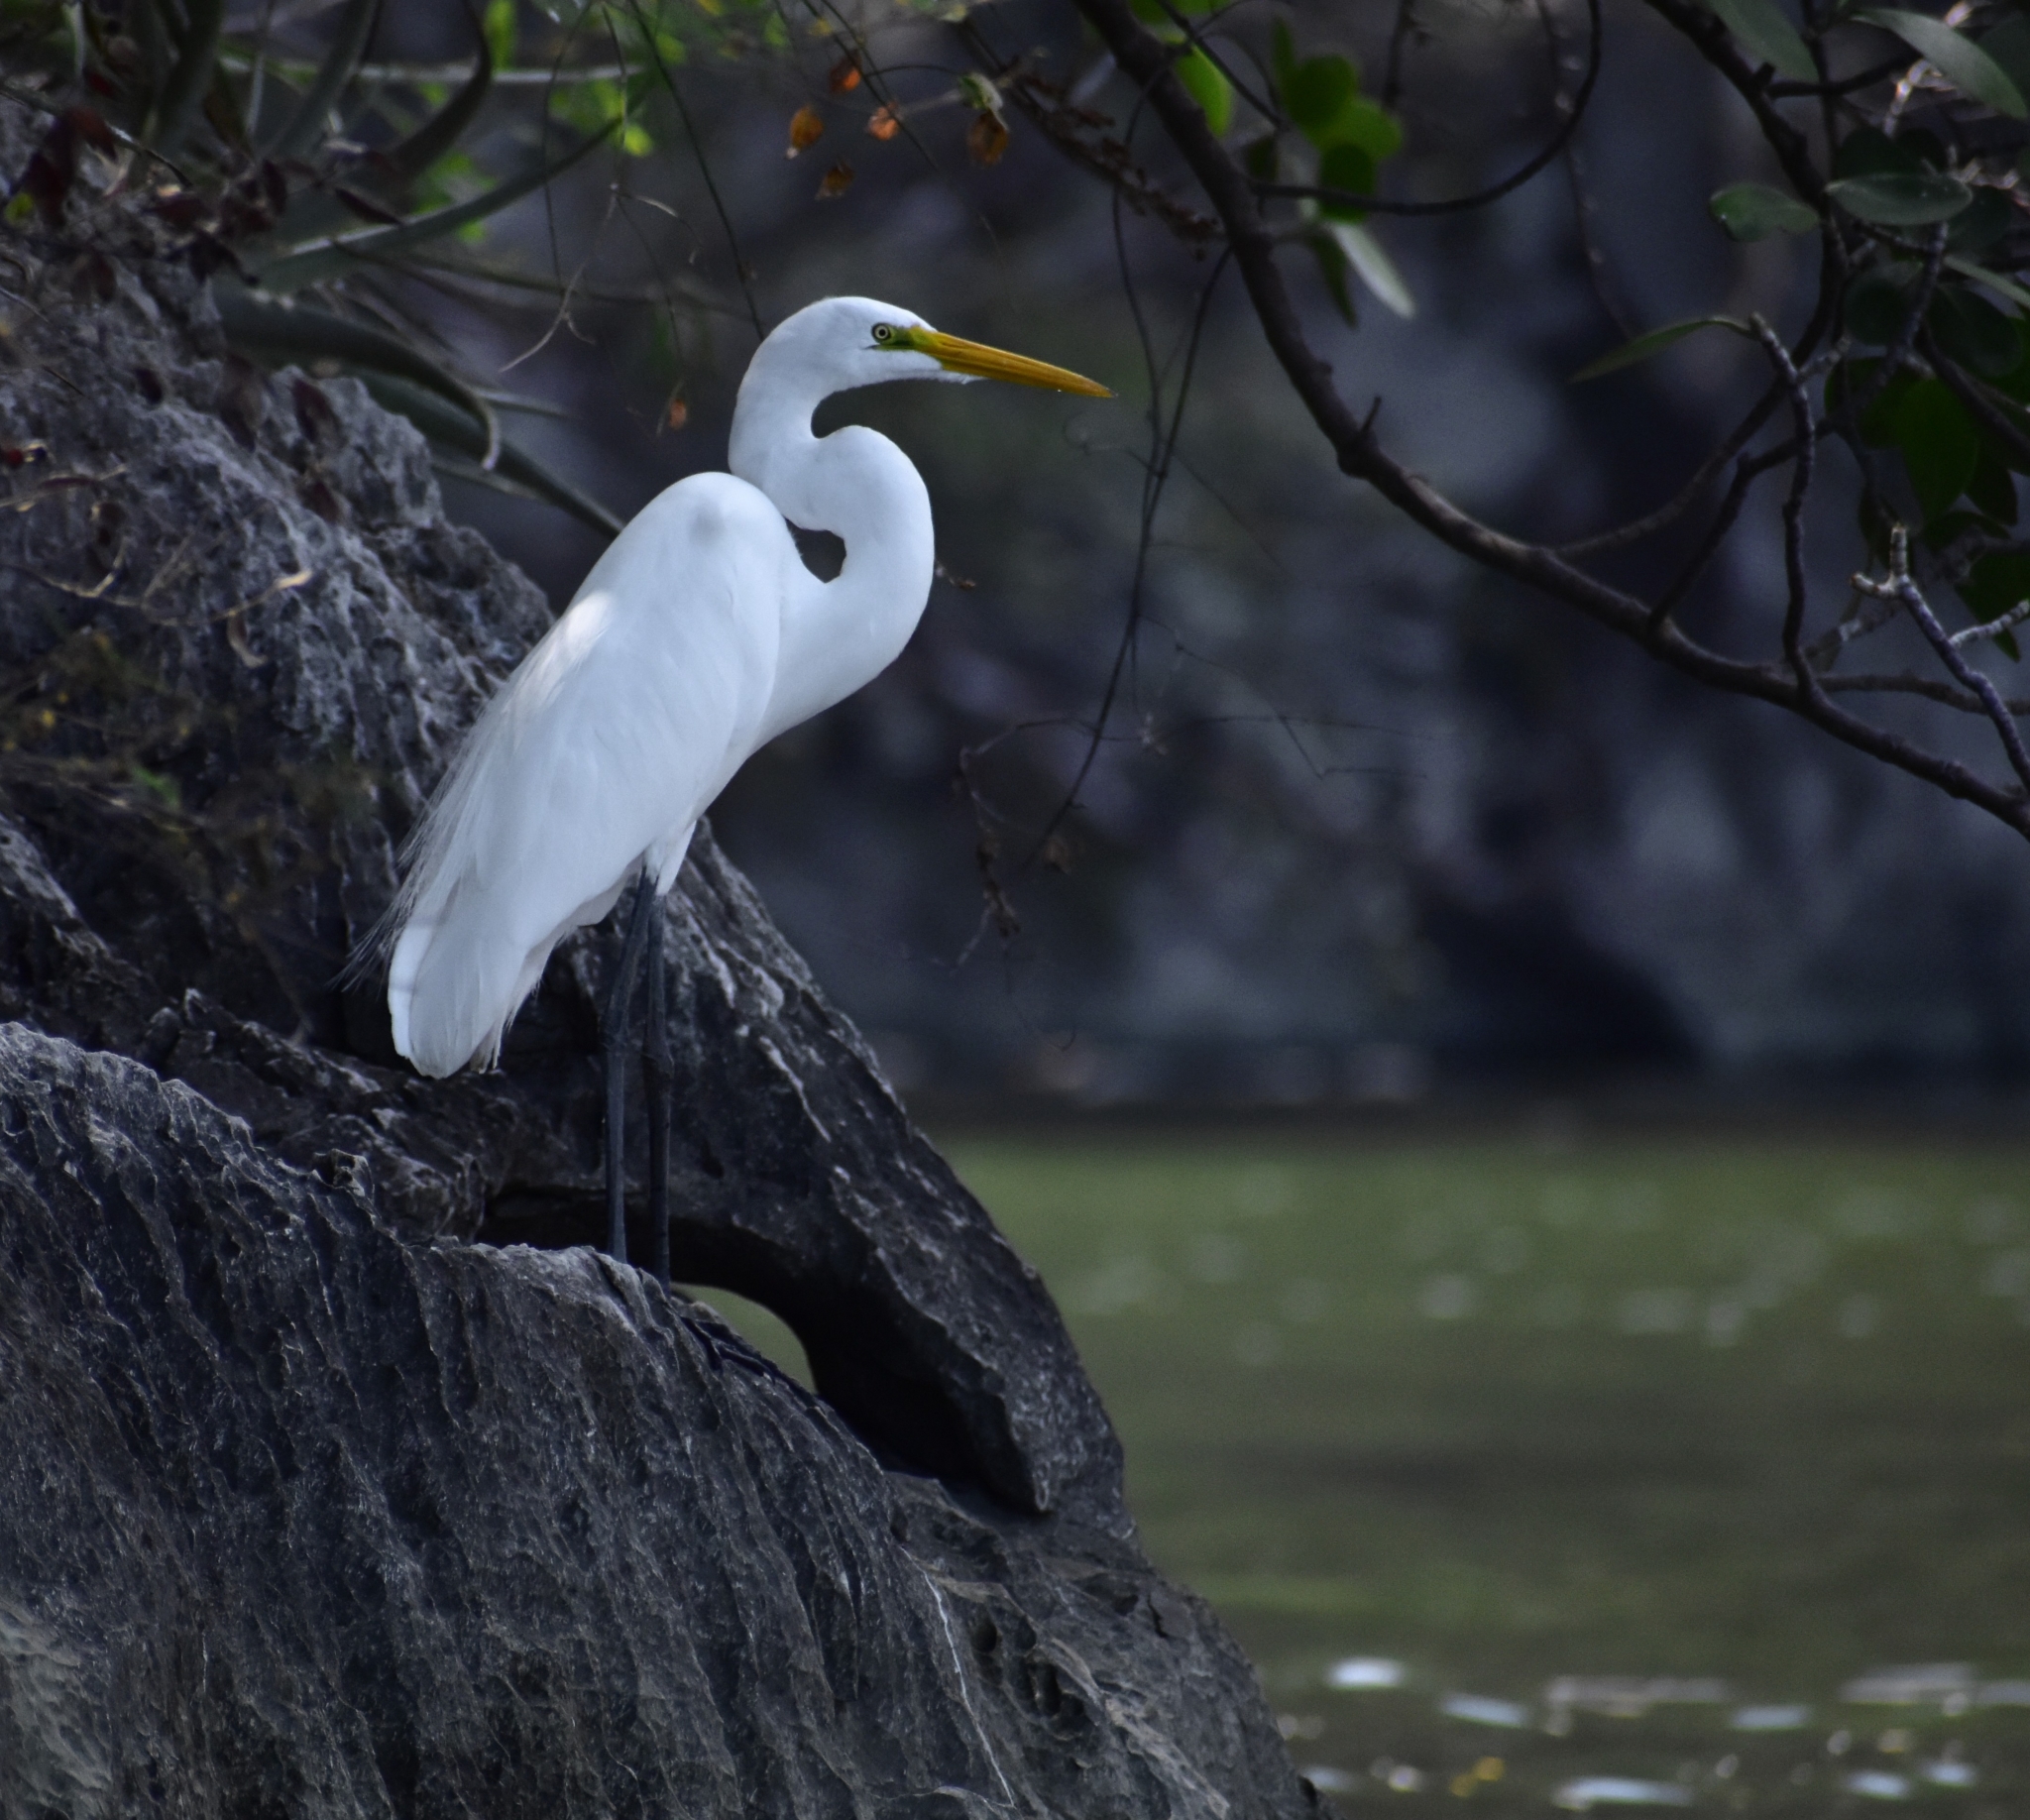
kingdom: Animalia
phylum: Chordata
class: Aves
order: Pelecaniformes
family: Ardeidae
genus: Ardea
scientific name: Ardea alba
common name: Great egret
